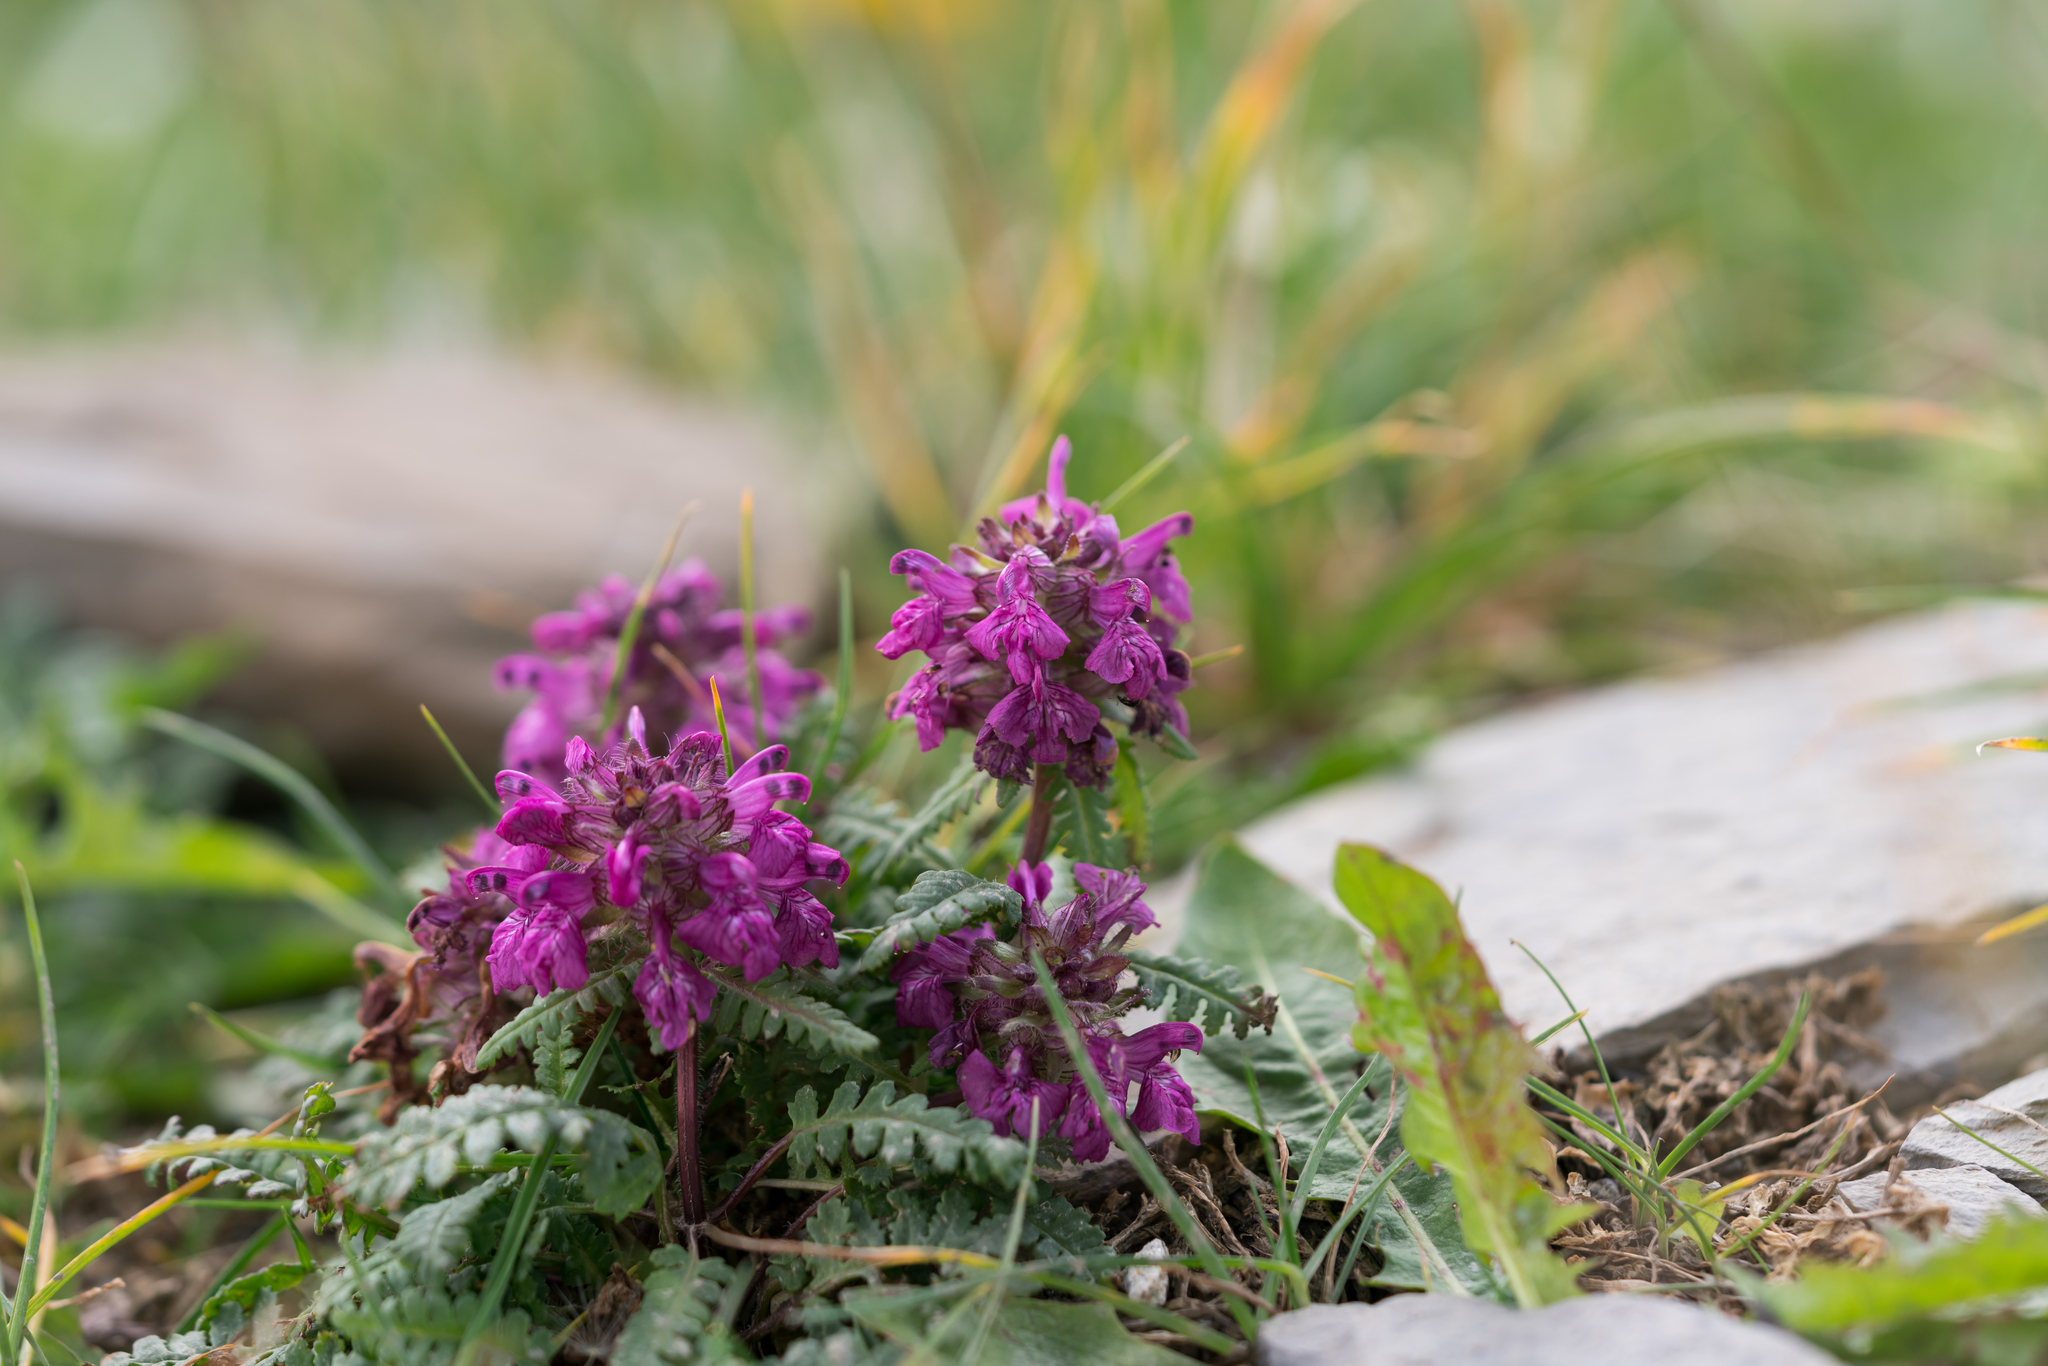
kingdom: Plantae
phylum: Tracheophyta
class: Magnoliopsida
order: Lamiales
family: Orobanchaceae
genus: Pedicularis
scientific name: Pedicularis verticillata
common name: Whorled lousewort
